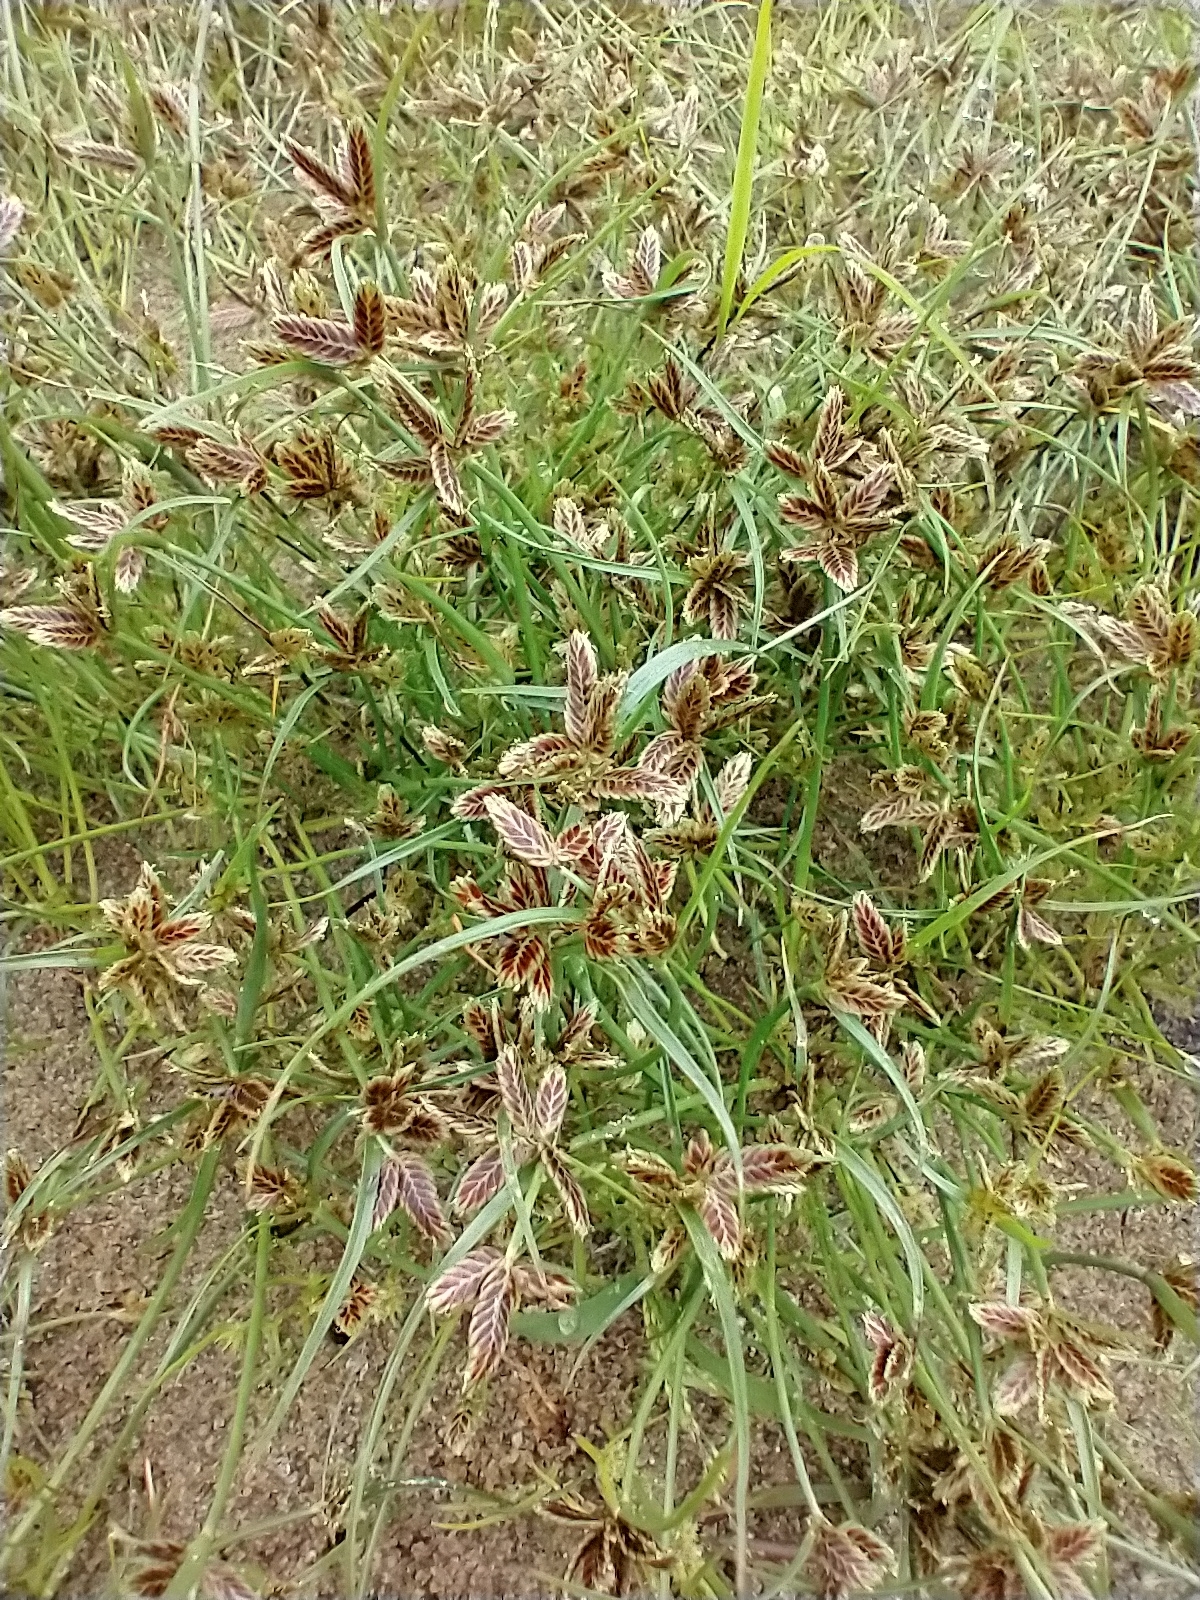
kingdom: Plantae
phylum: Tracheophyta
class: Liliopsida
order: Poales
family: Cyperaceae
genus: Cyperus
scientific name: Cyperus bipartitus
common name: Brook flatsedge
